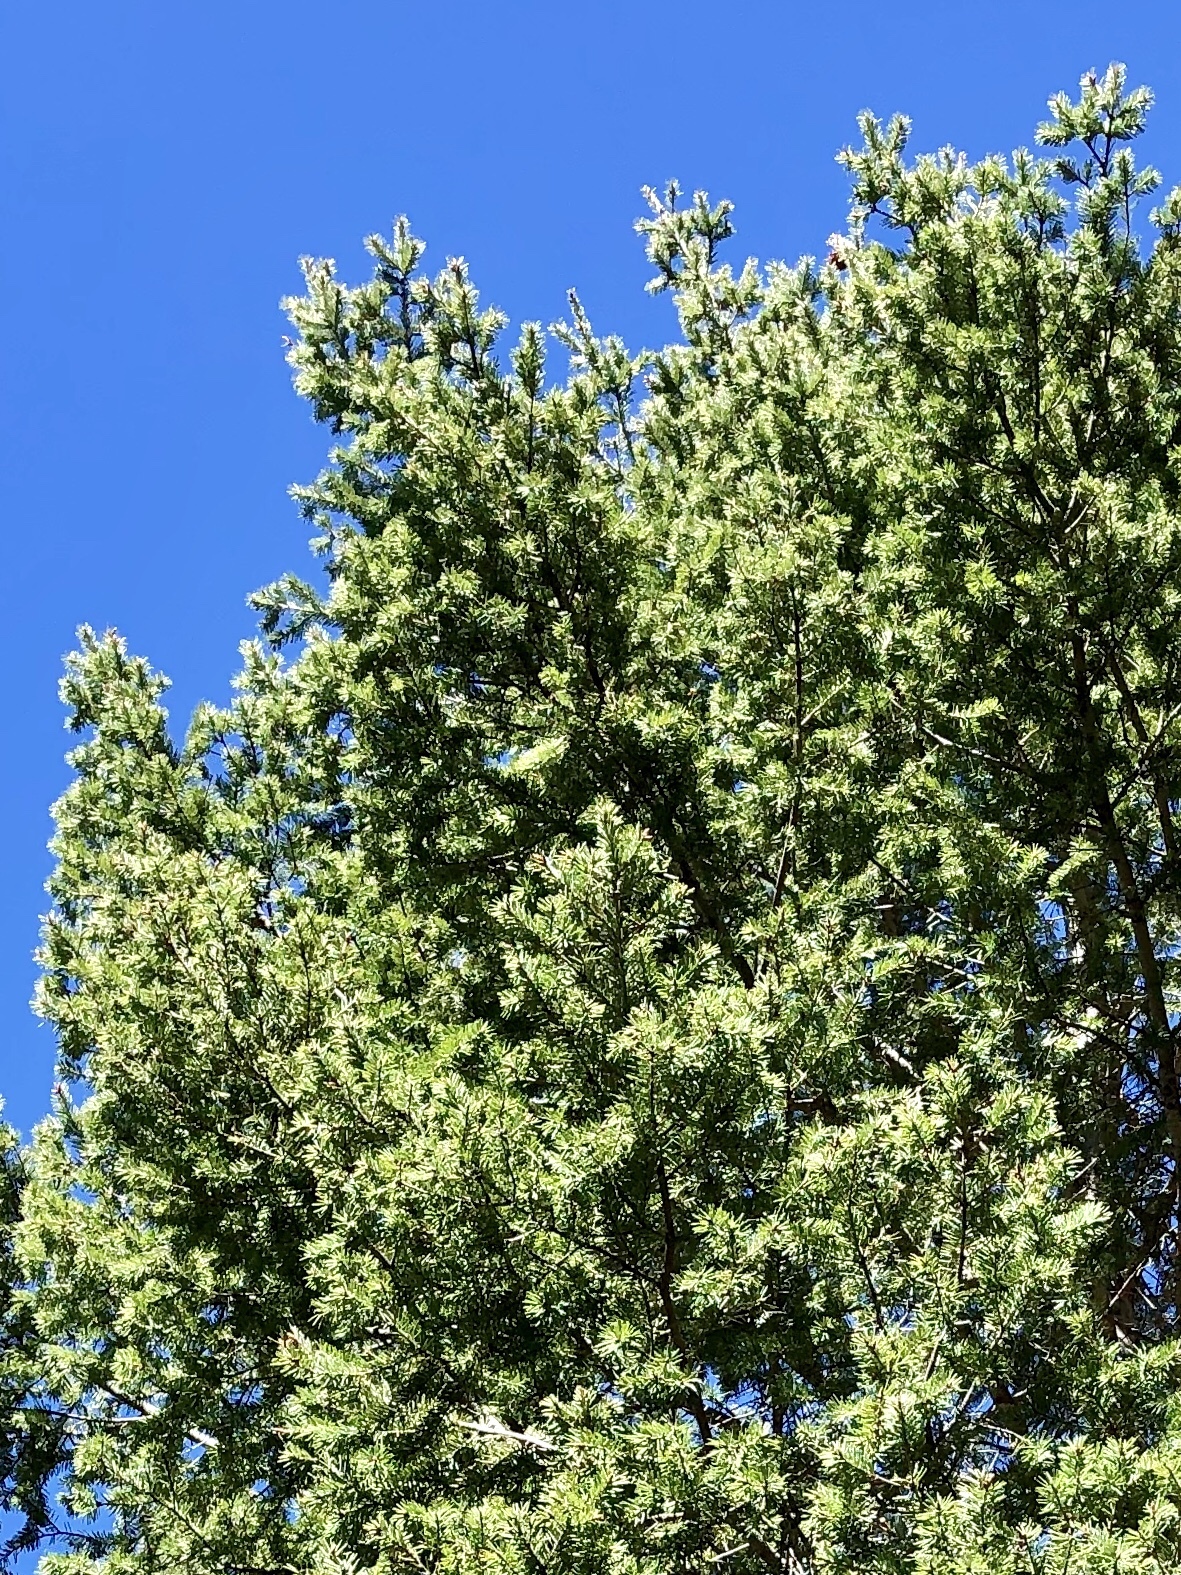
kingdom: Plantae
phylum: Tracheophyta
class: Pinopsida
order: Pinales
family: Pinaceae
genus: Abies
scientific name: Abies concolor
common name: Colorado fir
